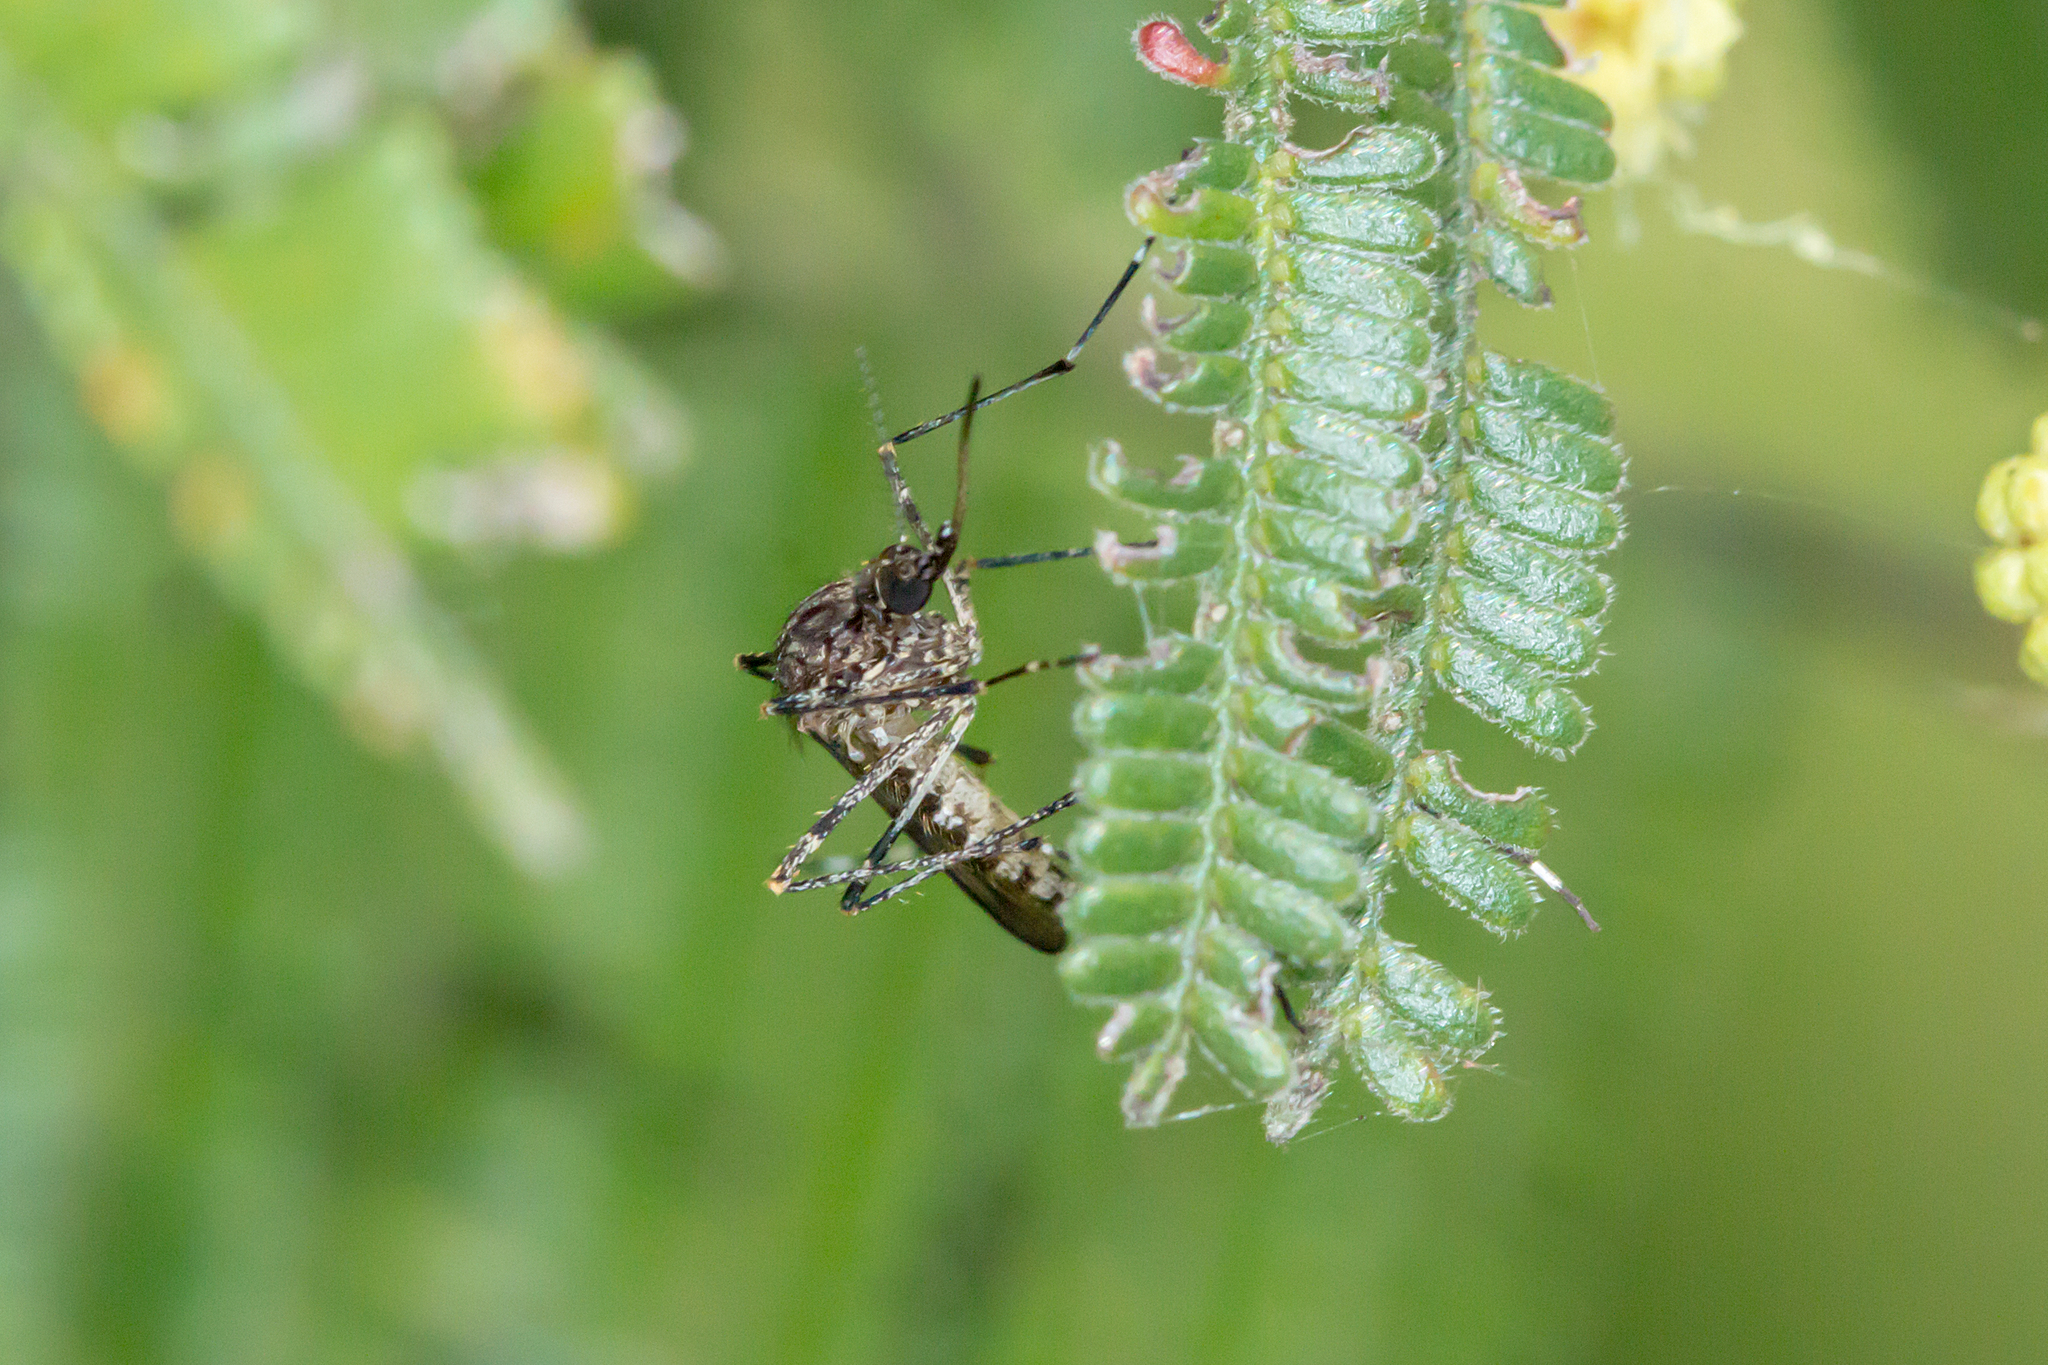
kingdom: Animalia
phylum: Arthropoda
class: Insecta
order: Diptera
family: Culicidae
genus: Aedes
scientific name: Aedes alboannulatus
